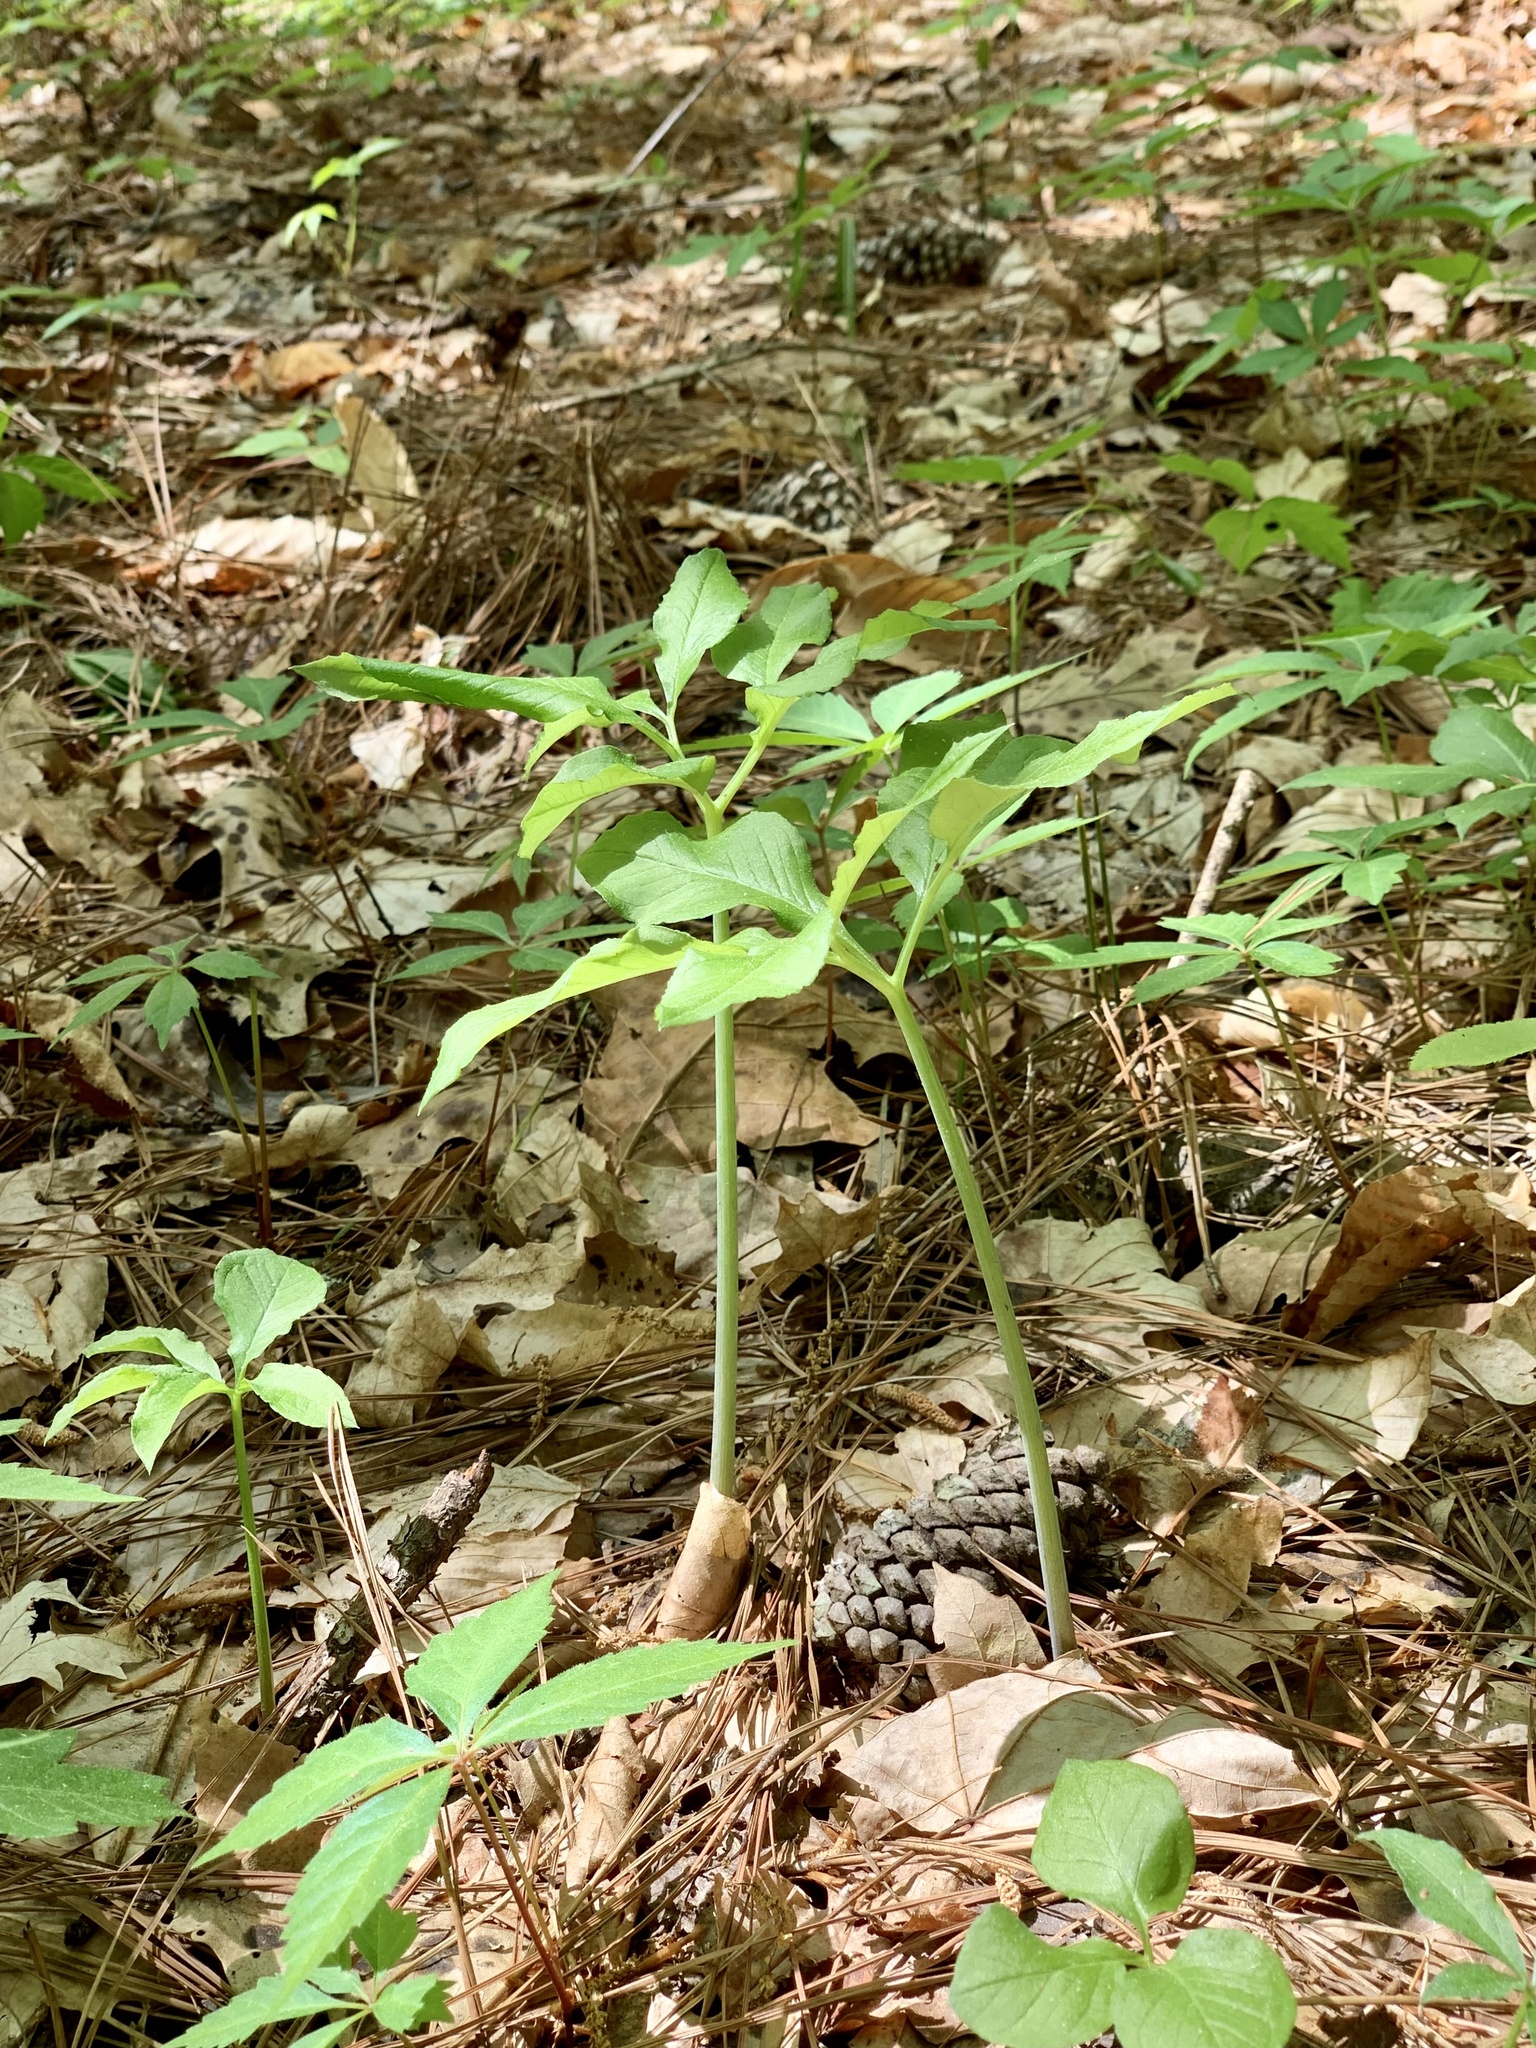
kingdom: Plantae
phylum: Tracheophyta
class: Liliopsida
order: Alismatales
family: Araceae
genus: Arisaema
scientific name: Arisaema dracontium
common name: Dragon-arum
